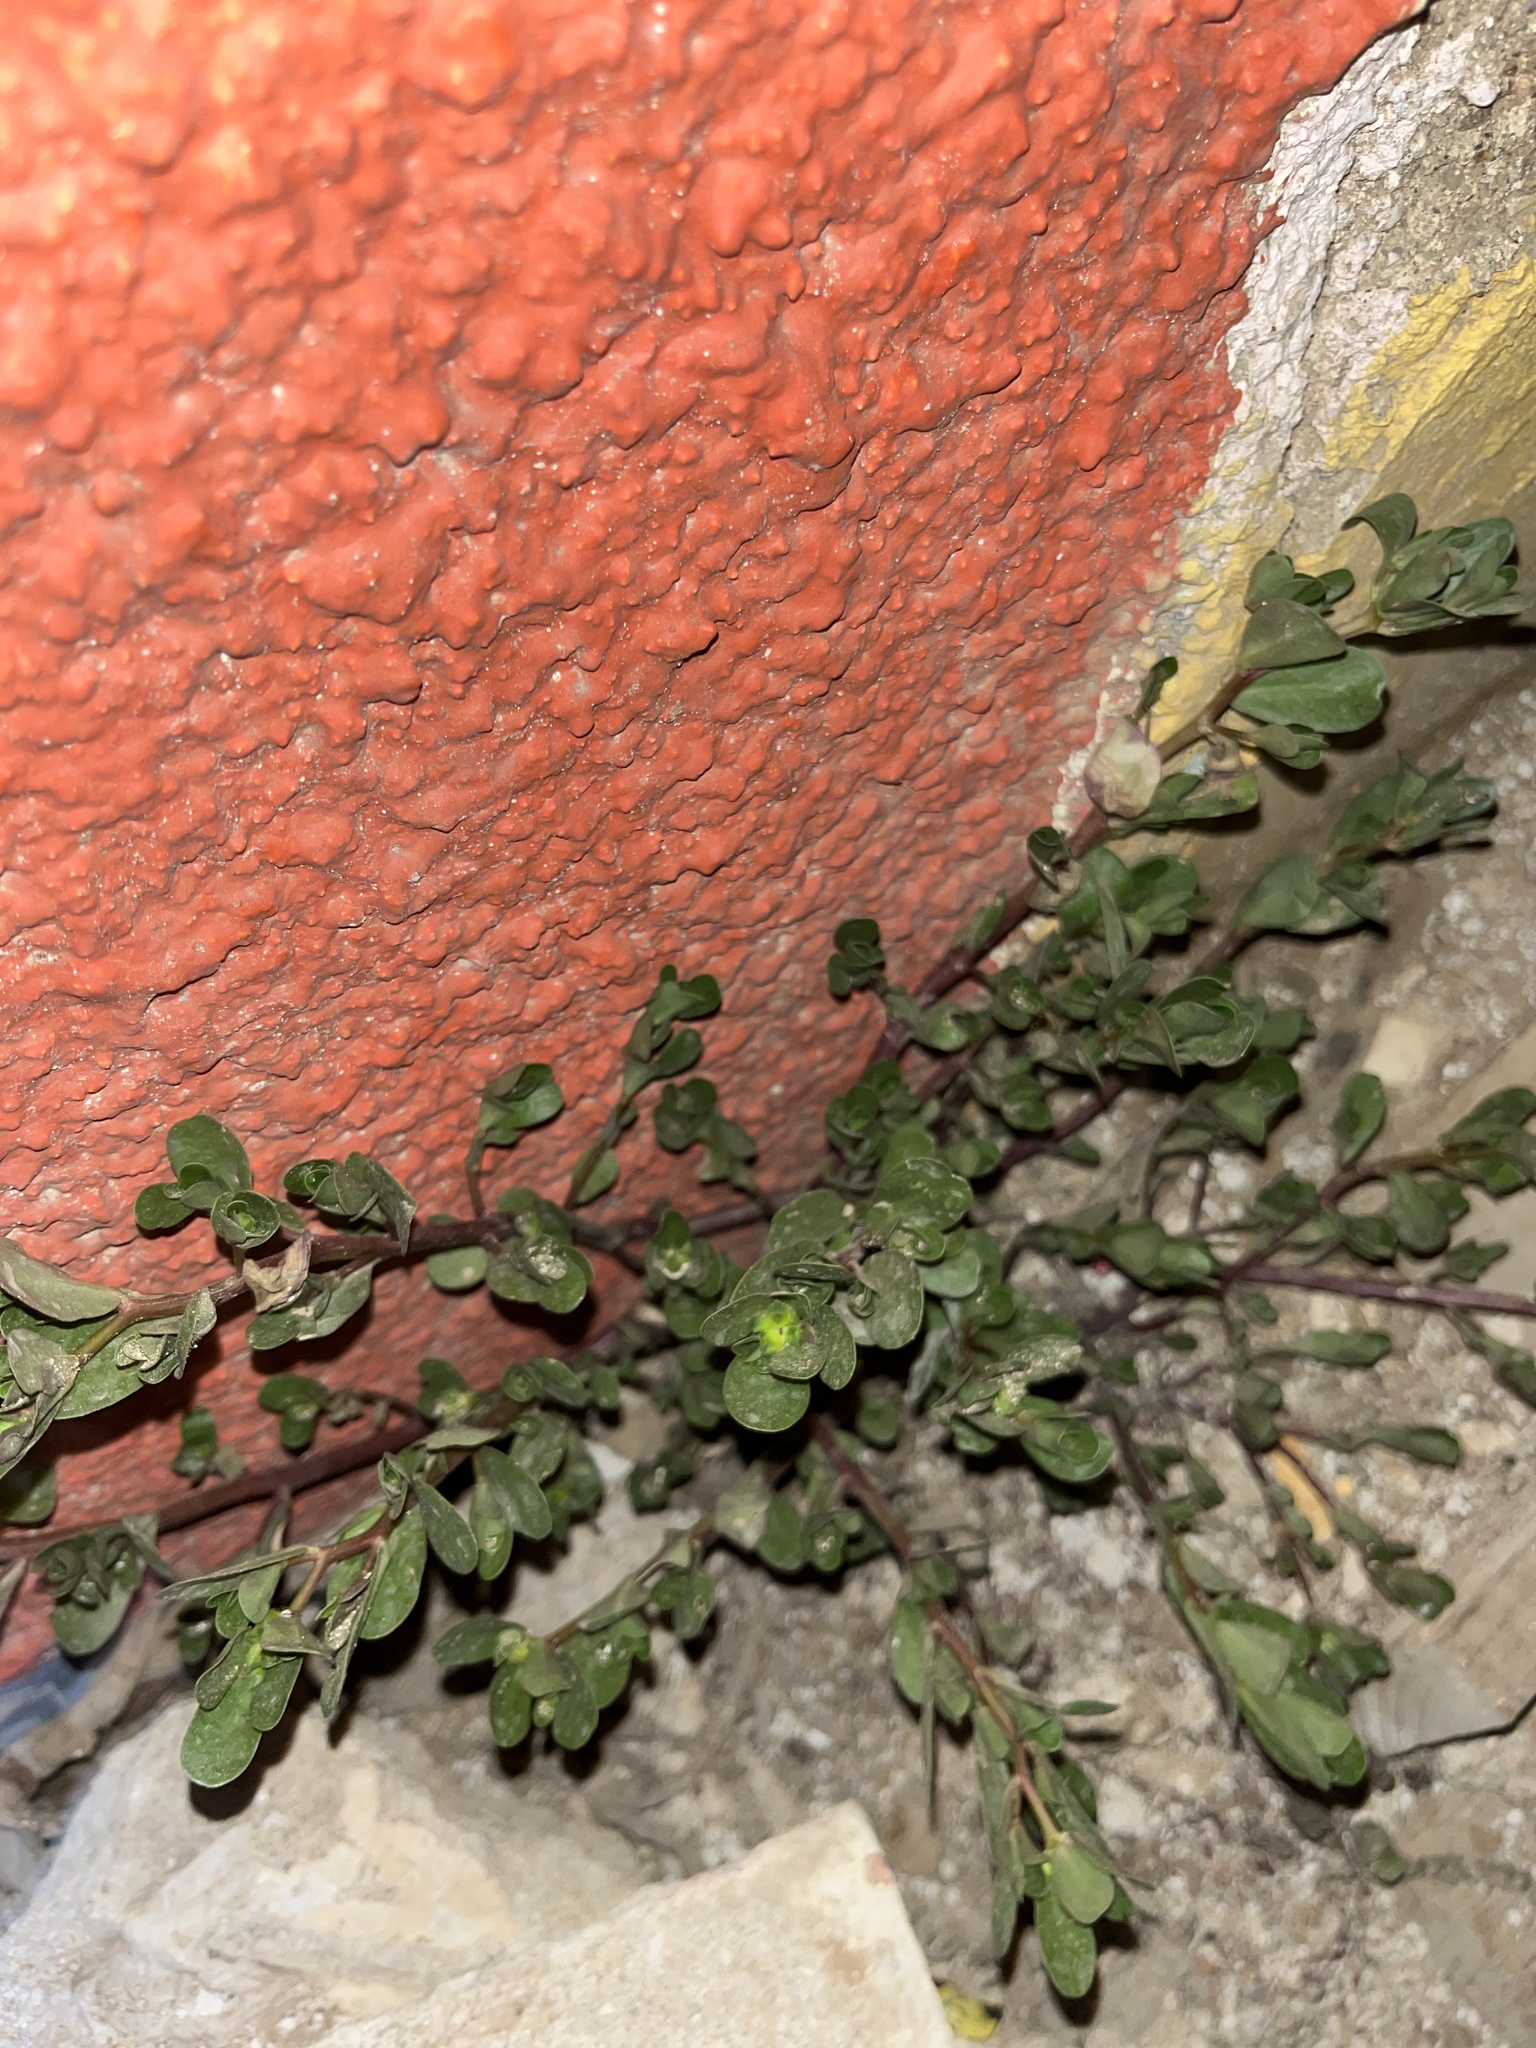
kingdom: Plantae
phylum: Tracheophyta
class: Magnoliopsida
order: Caryophyllales
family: Portulacaceae
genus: Portulaca
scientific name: Portulaca oleracea
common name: Common purslane
